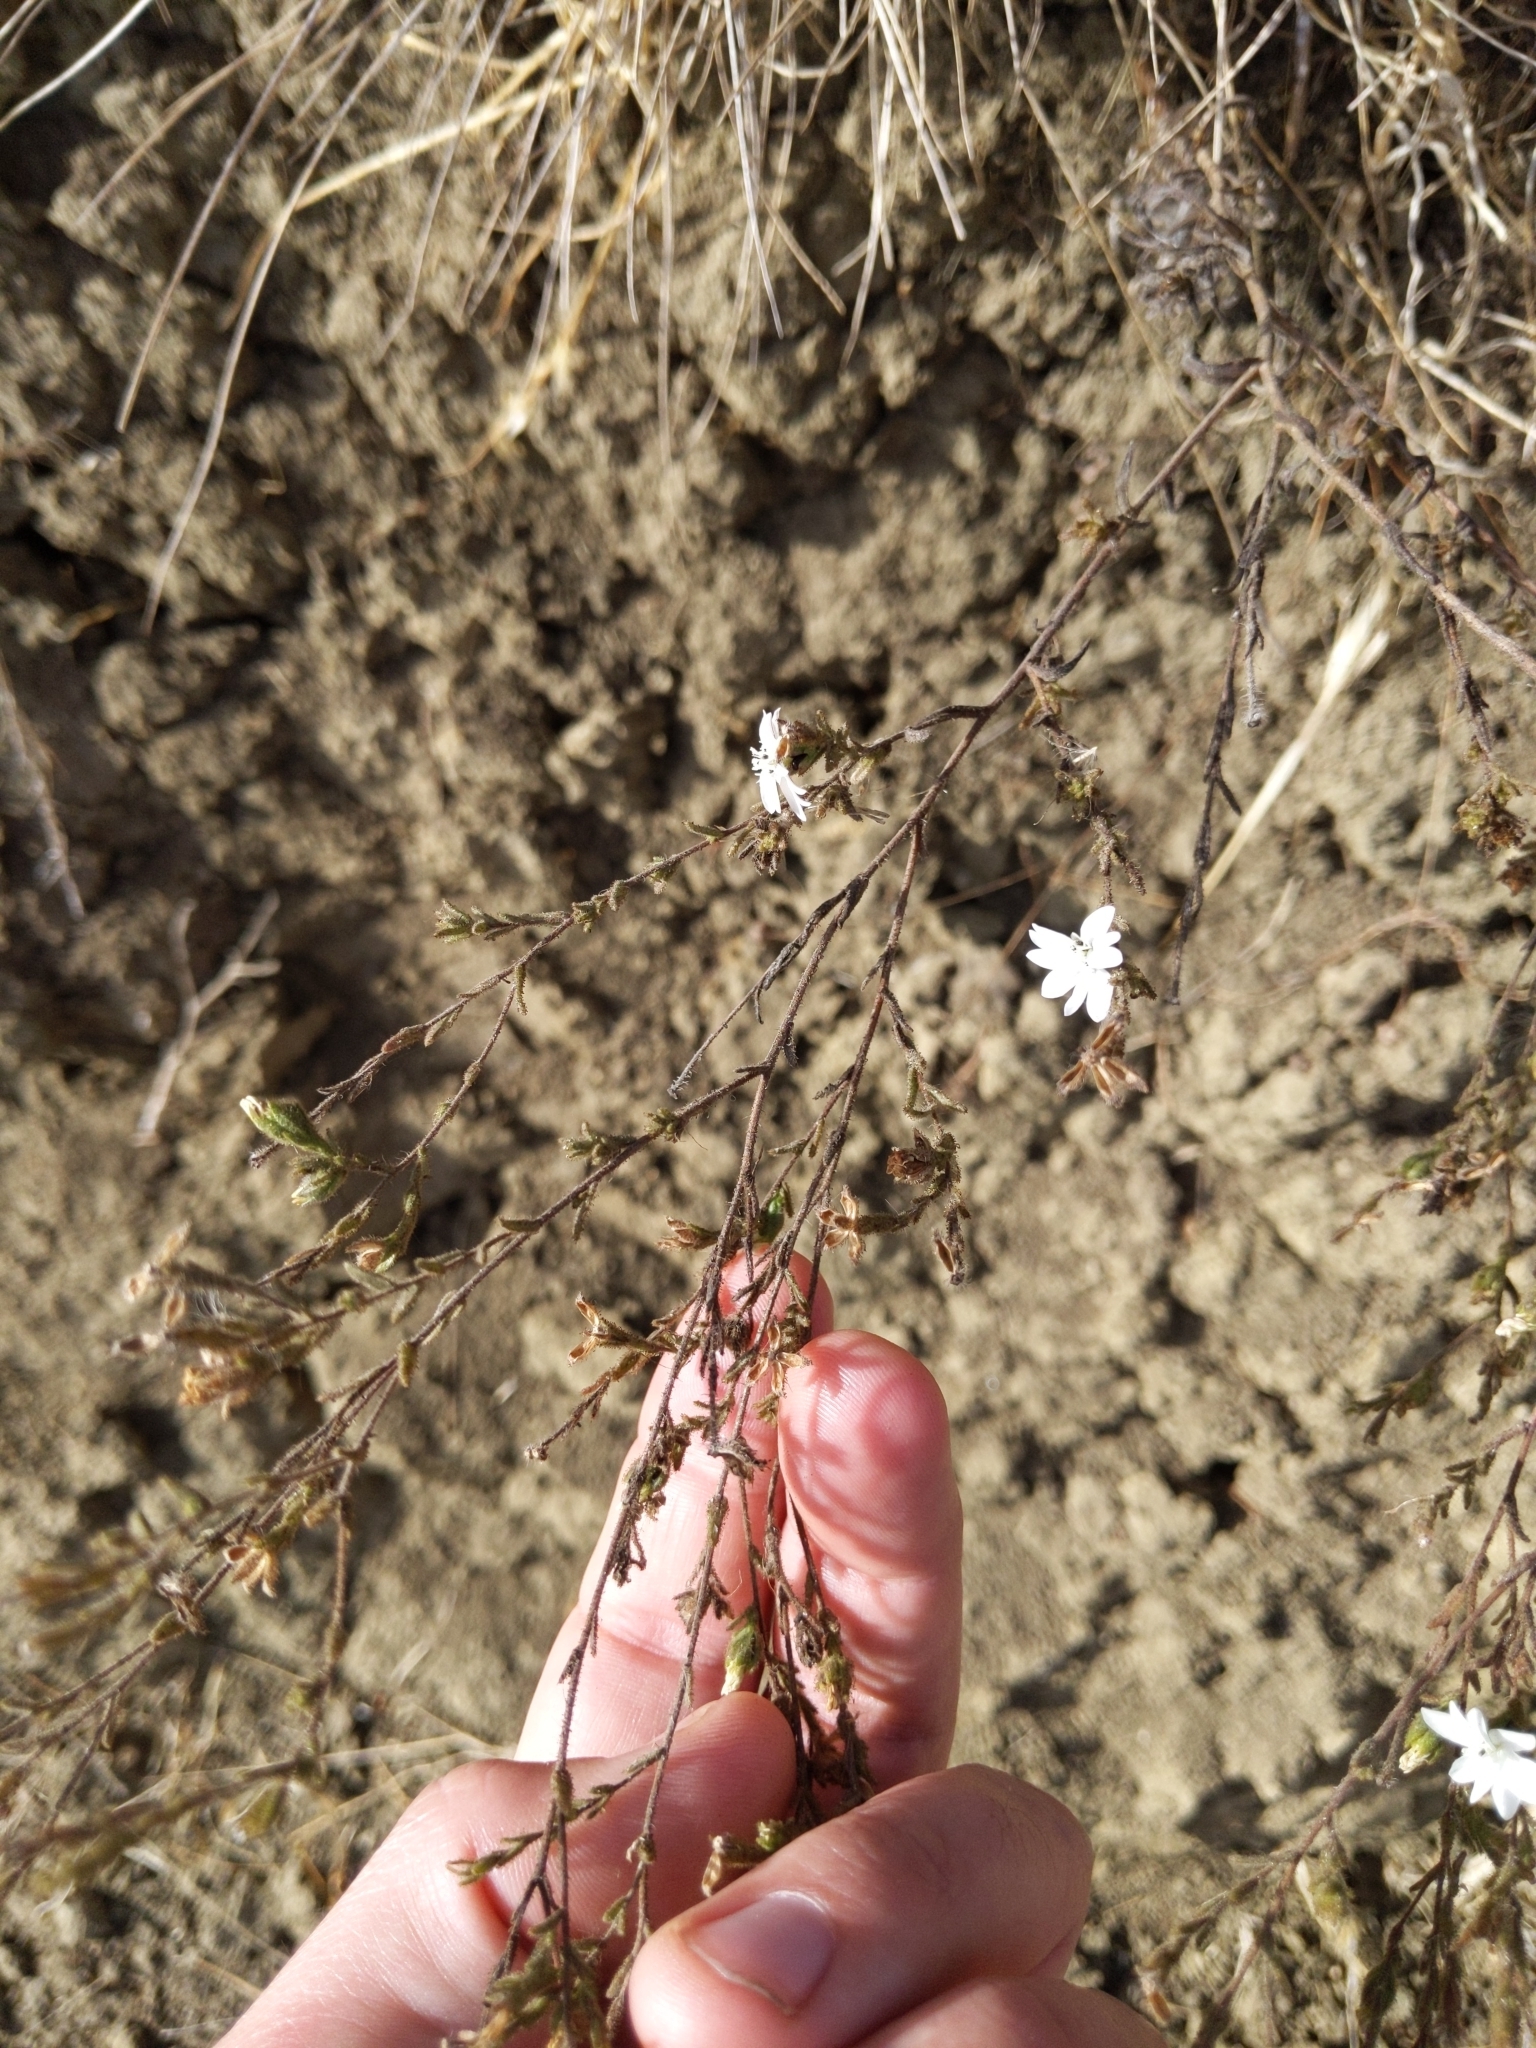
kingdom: Plantae
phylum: Tracheophyta
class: Magnoliopsida
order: Asterales
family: Asteraceae
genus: Hemizonia
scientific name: Hemizonia congesta
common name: Hayfield tarweed
